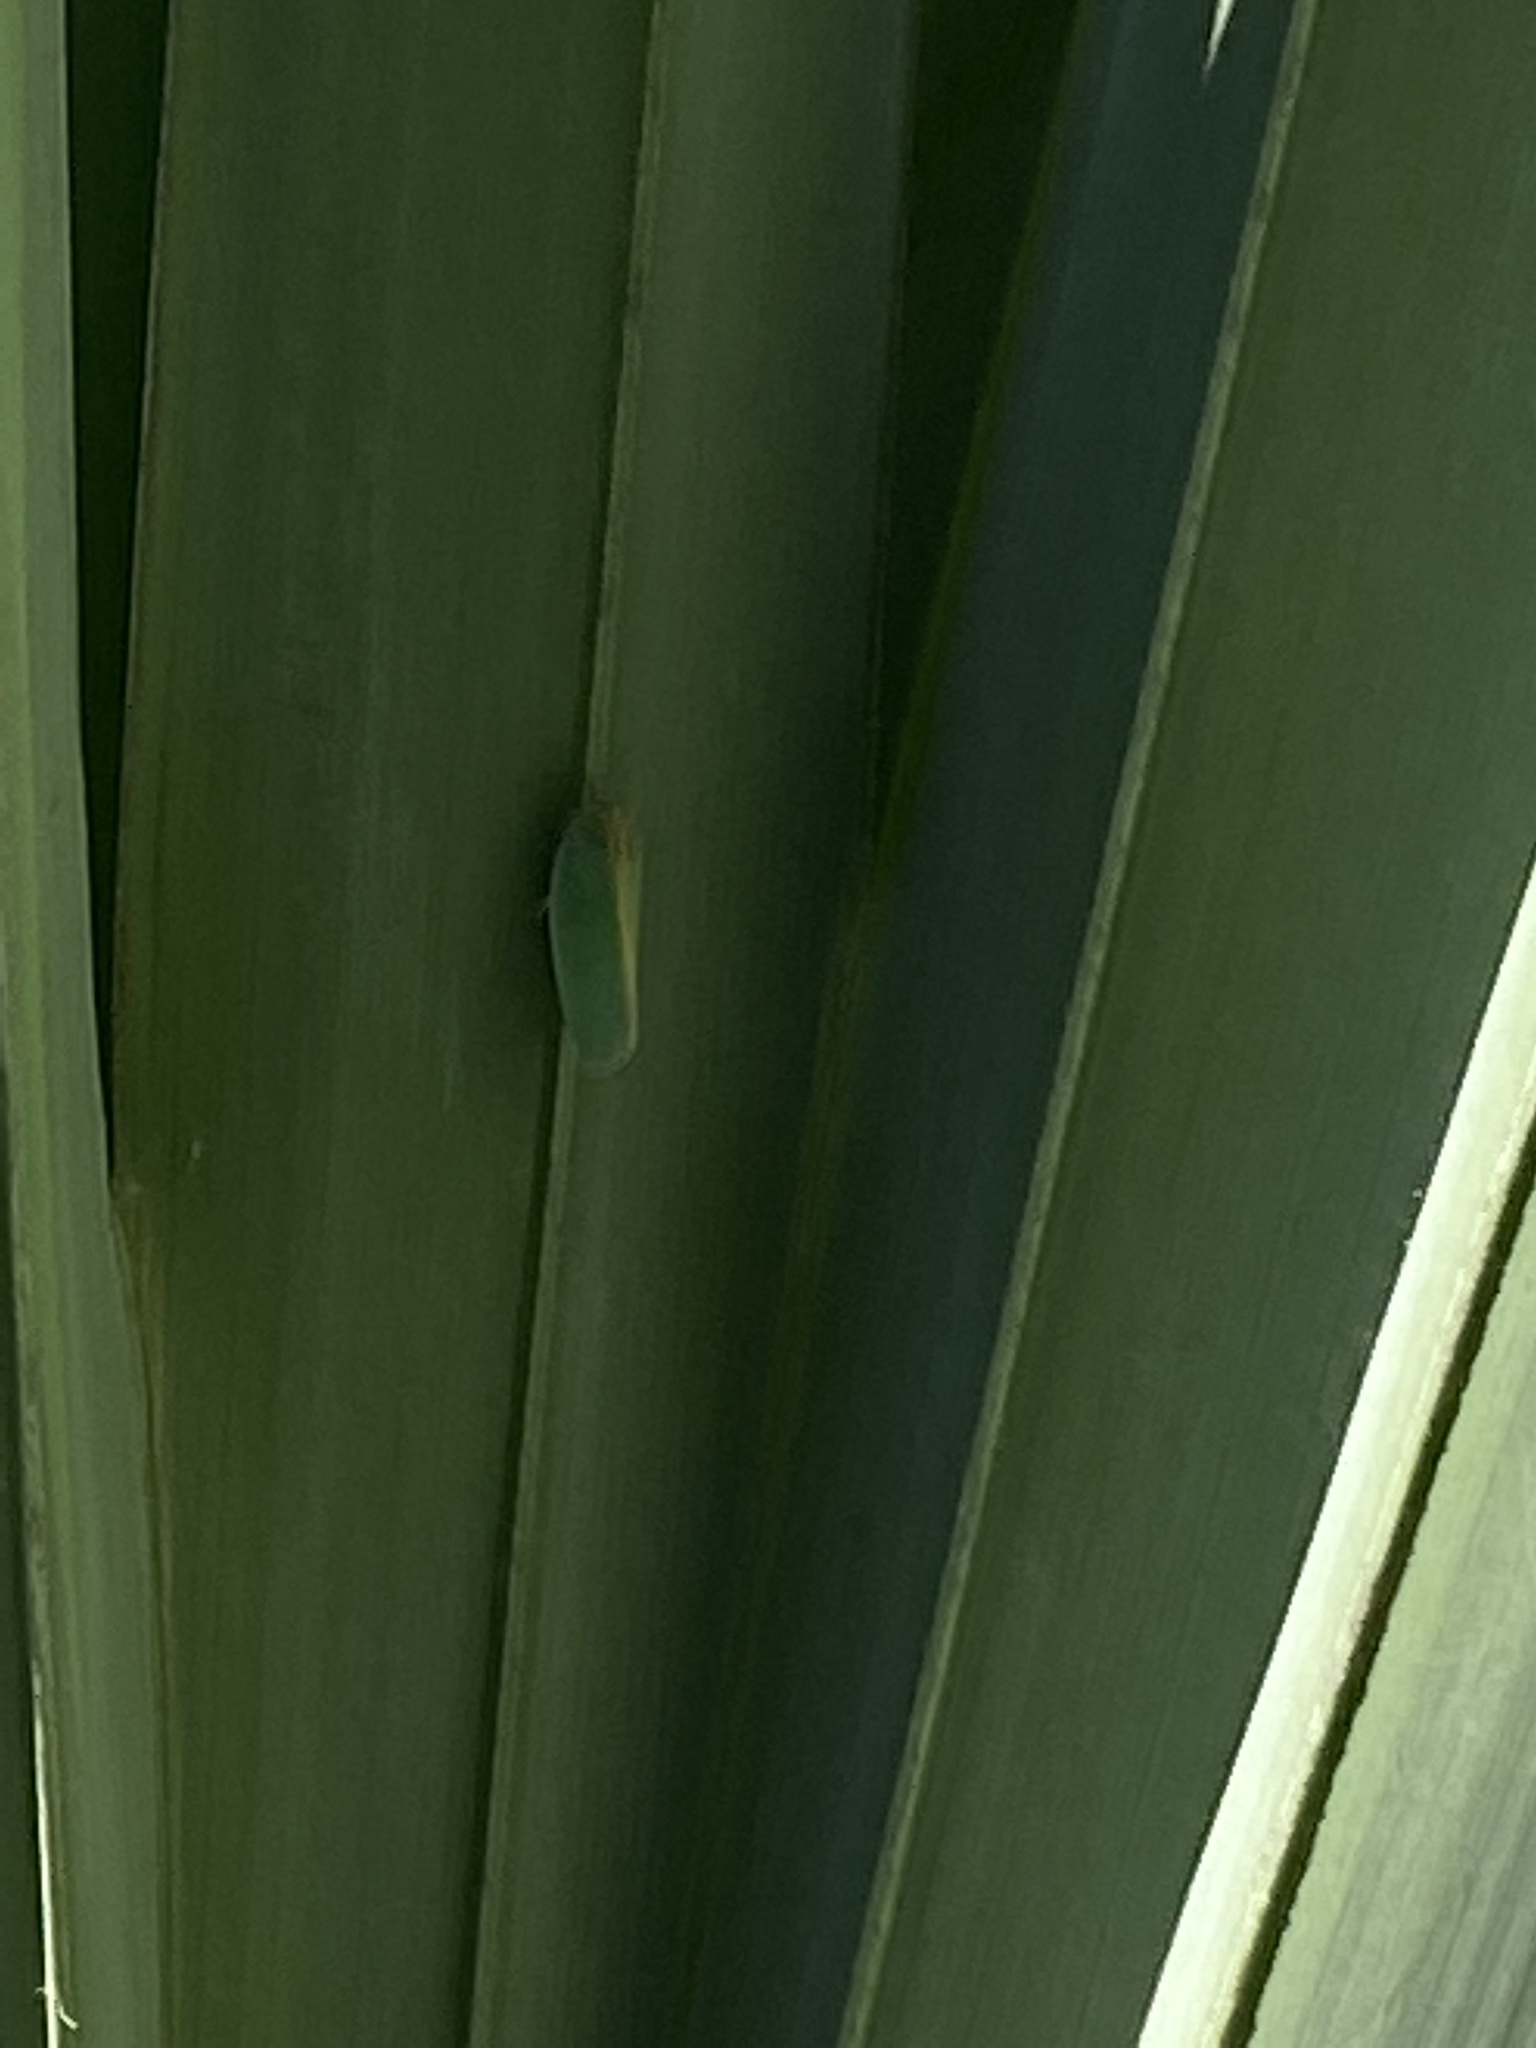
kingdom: Animalia
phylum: Arthropoda
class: Insecta
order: Hemiptera
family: Flatidae
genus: Ormenaria
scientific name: Ormenaria rufifascia
